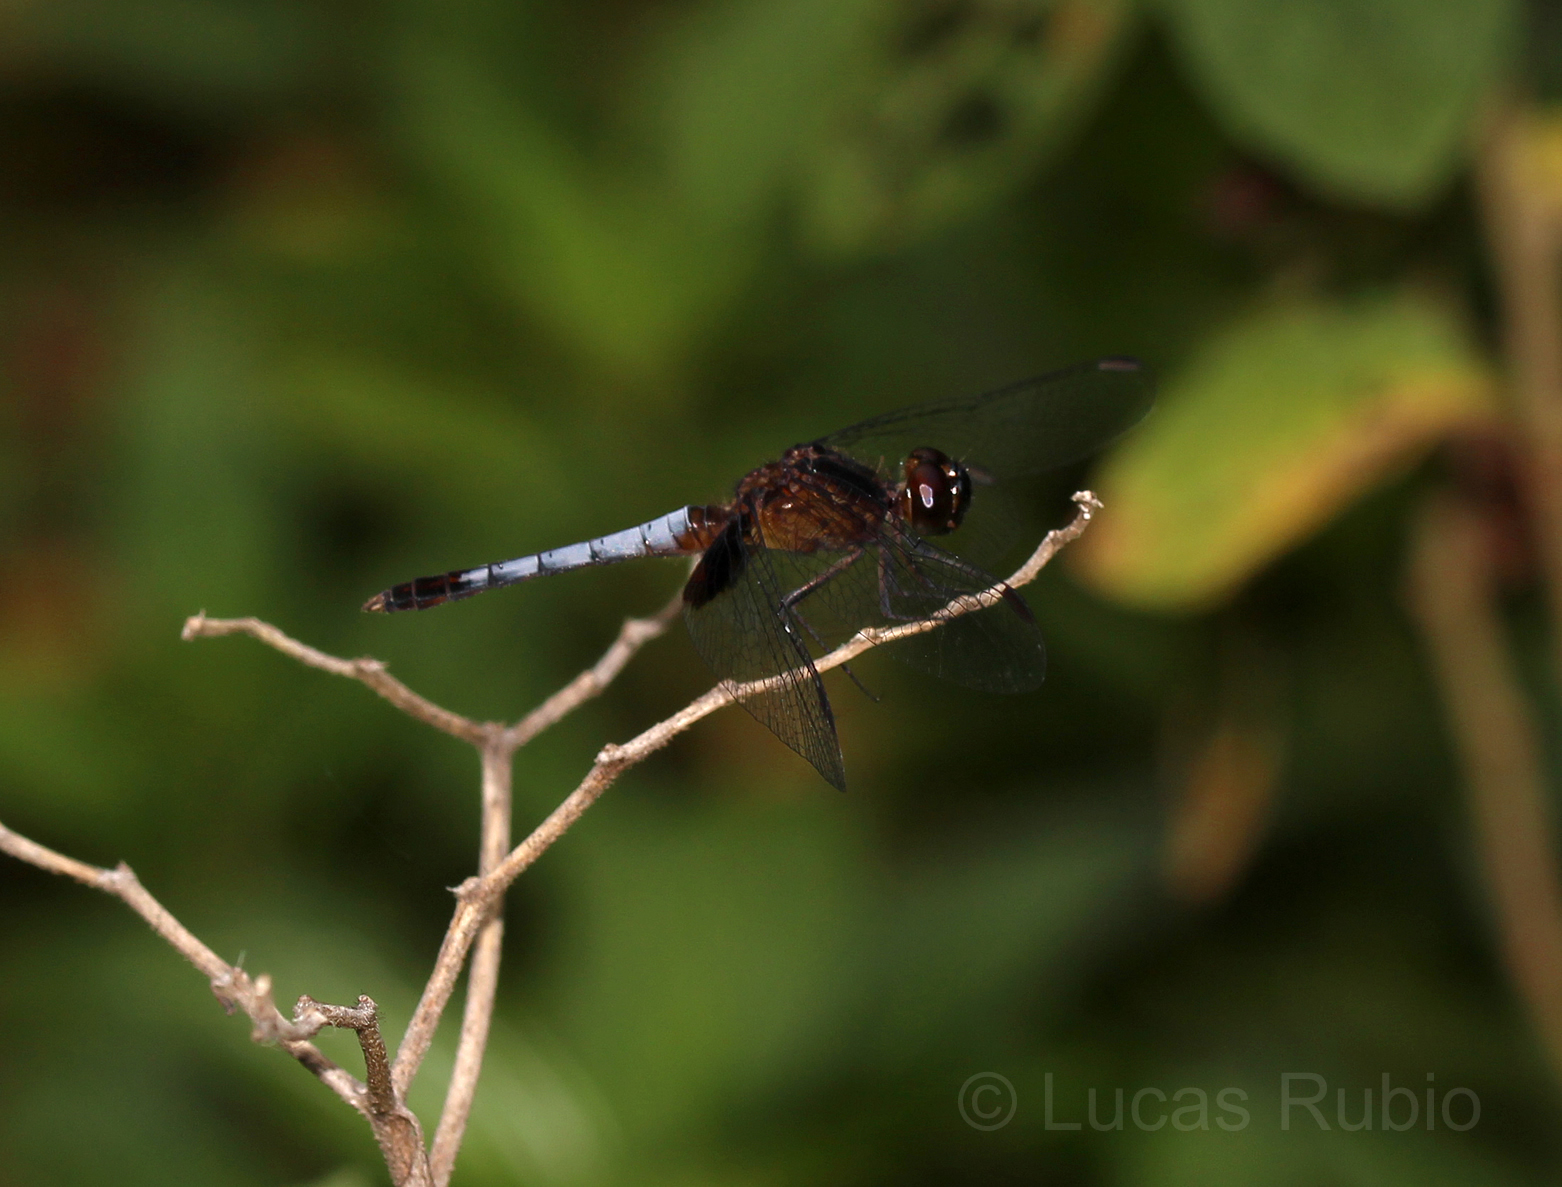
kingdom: Animalia
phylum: Arthropoda
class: Insecta
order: Odonata
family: Libellulidae
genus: Erythrodiplax
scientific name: Erythrodiplax media
